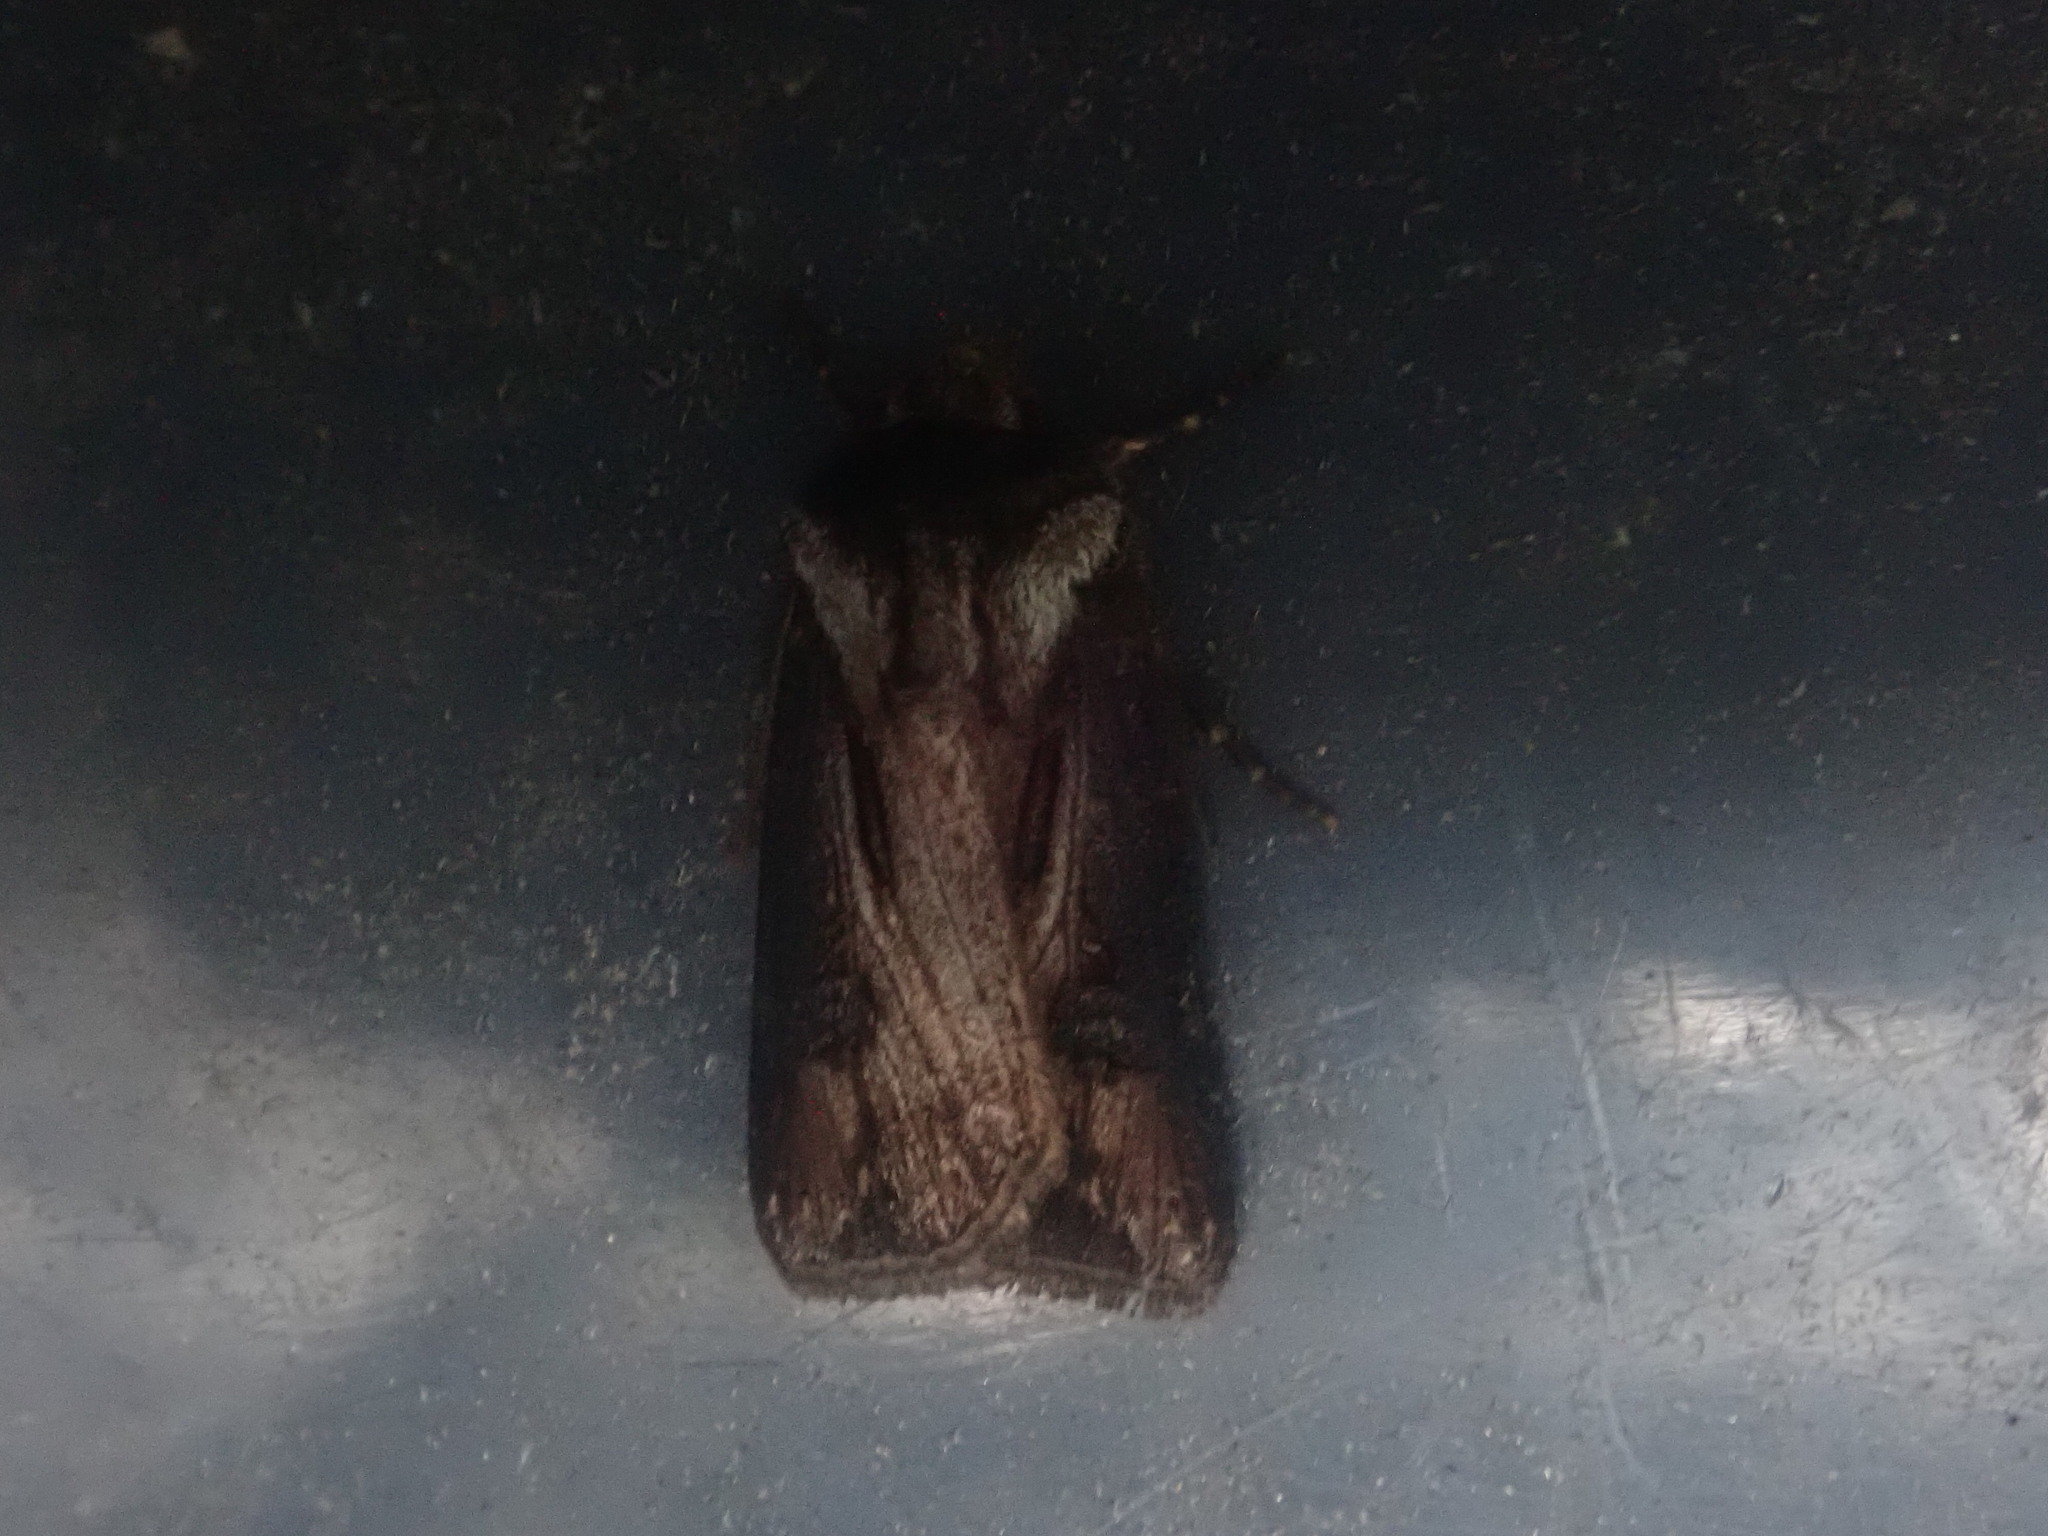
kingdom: Animalia
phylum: Arthropoda
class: Insecta
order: Lepidoptera
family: Noctuidae
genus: Agrotis
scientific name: Agrotis venerabilis
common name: Venerable dart
